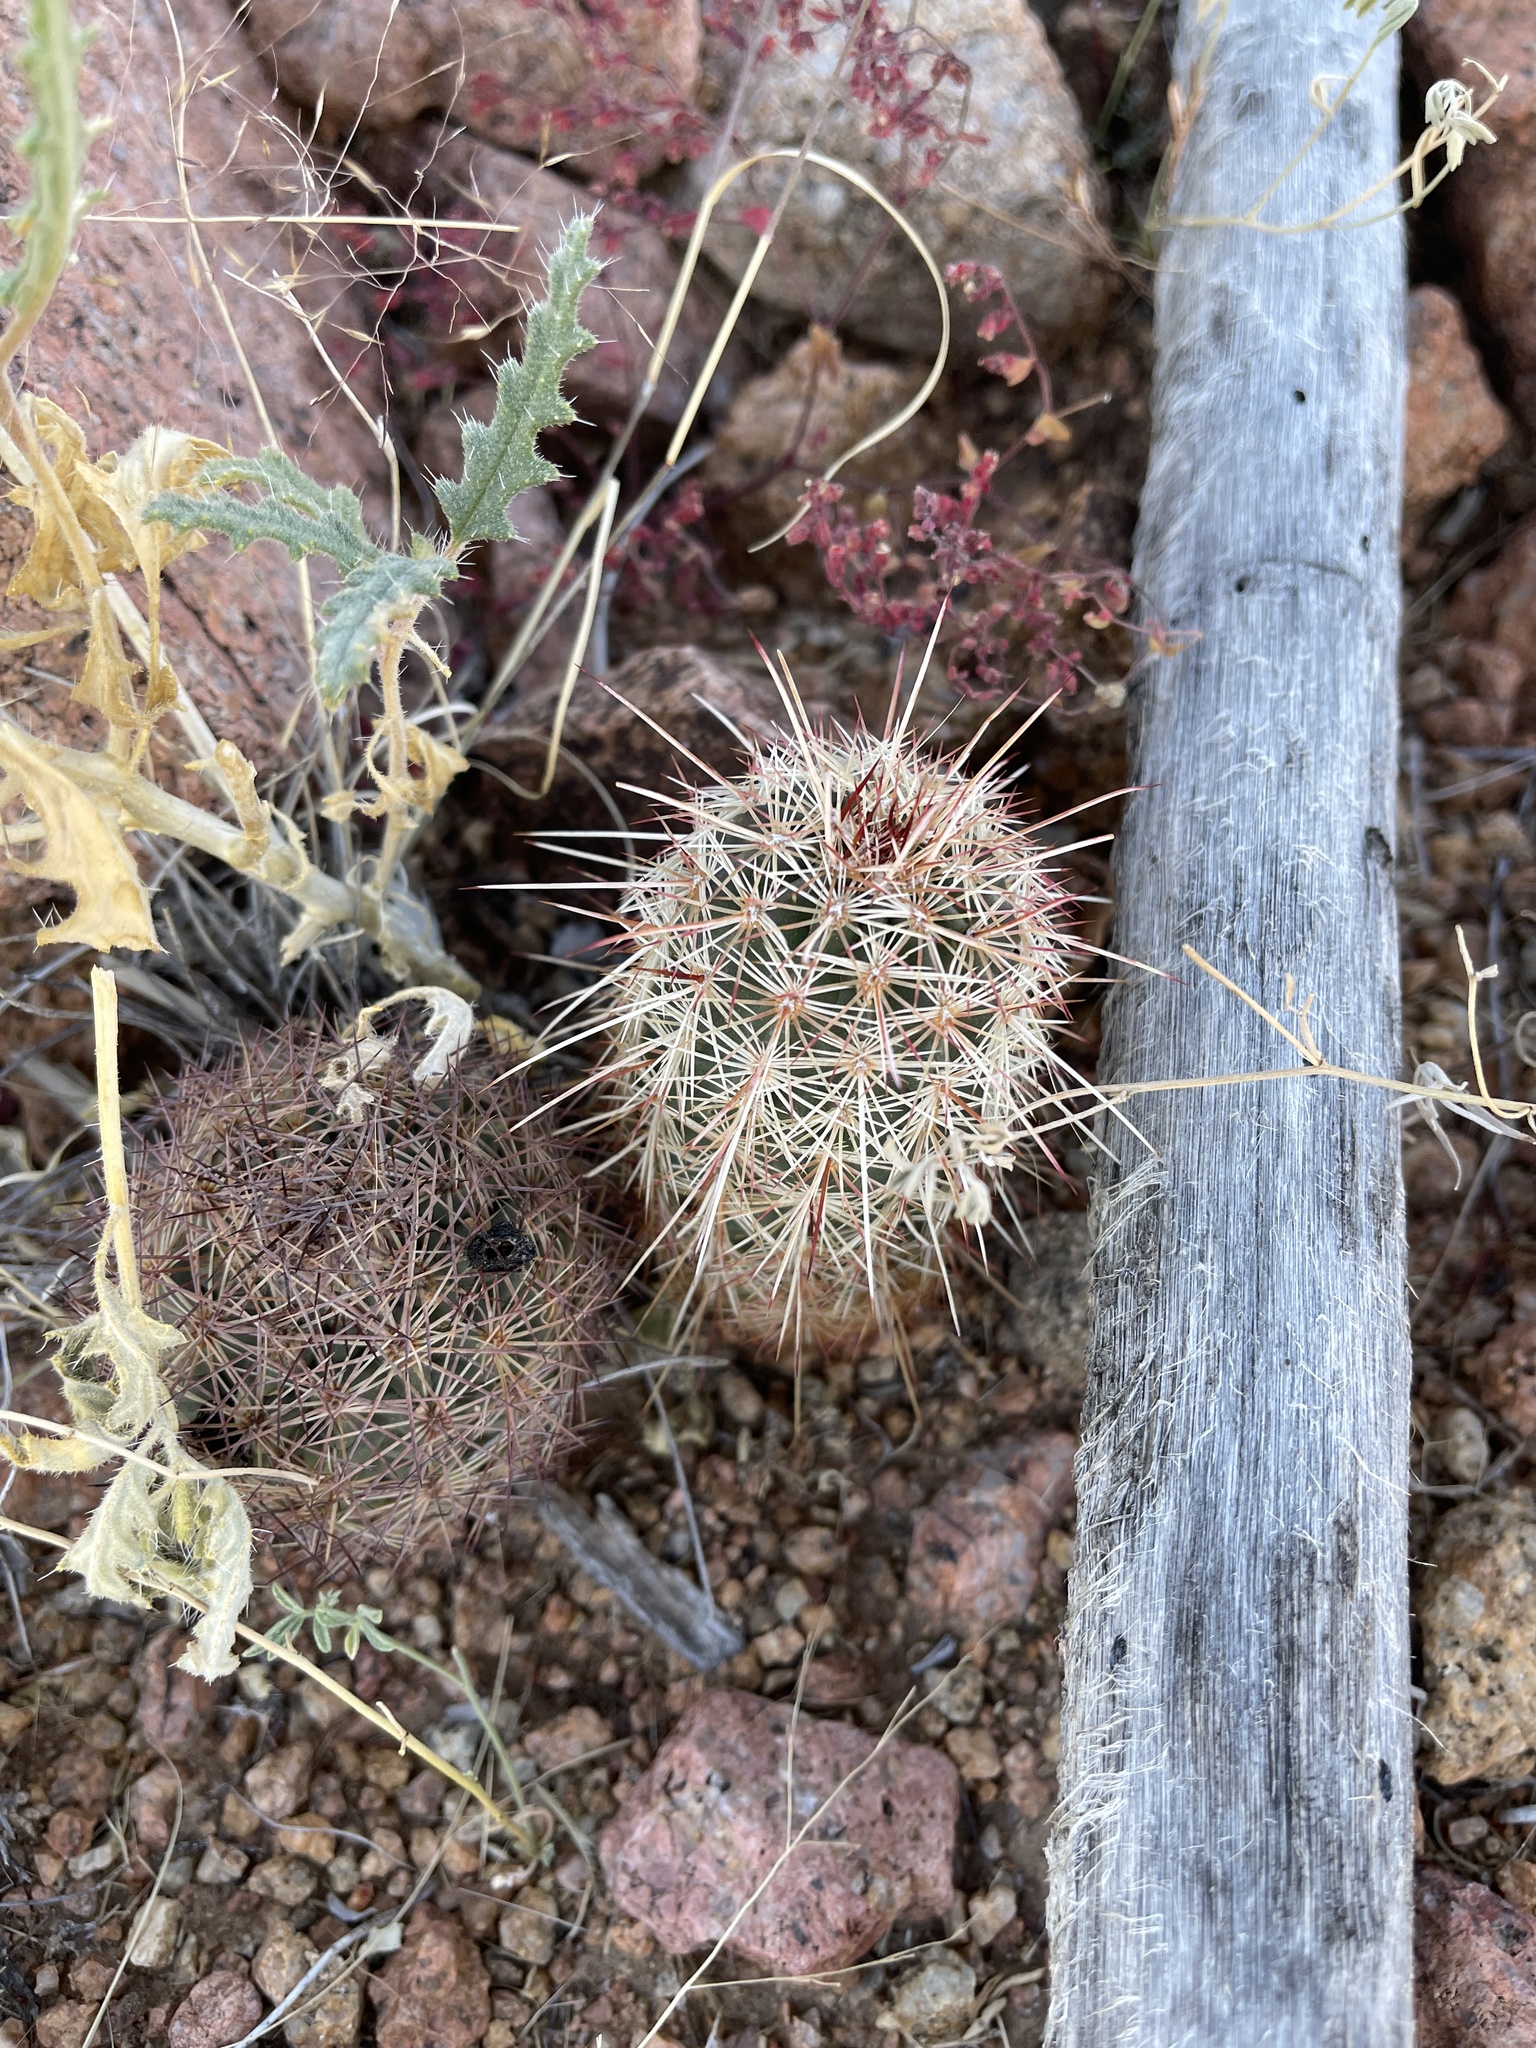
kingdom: Plantae
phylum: Tracheophyta
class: Magnoliopsida
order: Caryophyllales
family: Cactaceae
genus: Echinocereus
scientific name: Echinocereus viridiflorus
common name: Nylon hedgehog cactus
